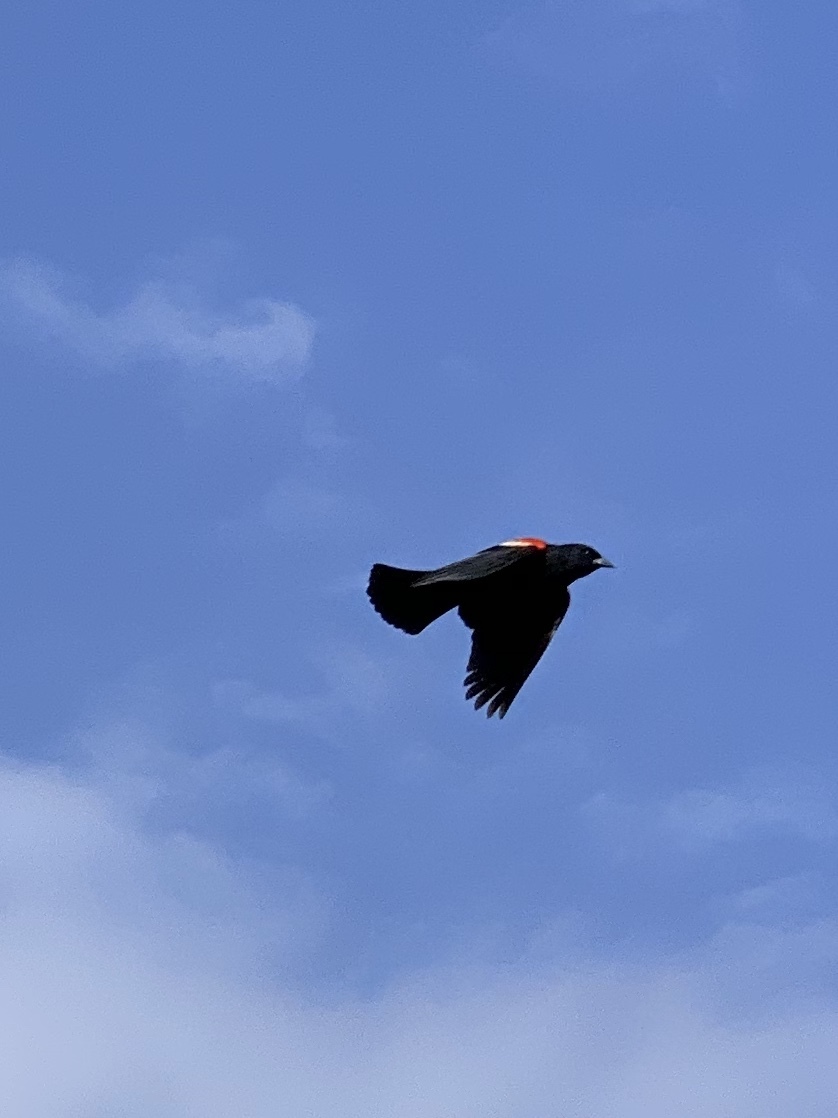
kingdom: Animalia
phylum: Chordata
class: Aves
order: Passeriformes
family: Icteridae
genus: Agelaius
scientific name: Agelaius phoeniceus
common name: Red-winged blackbird
